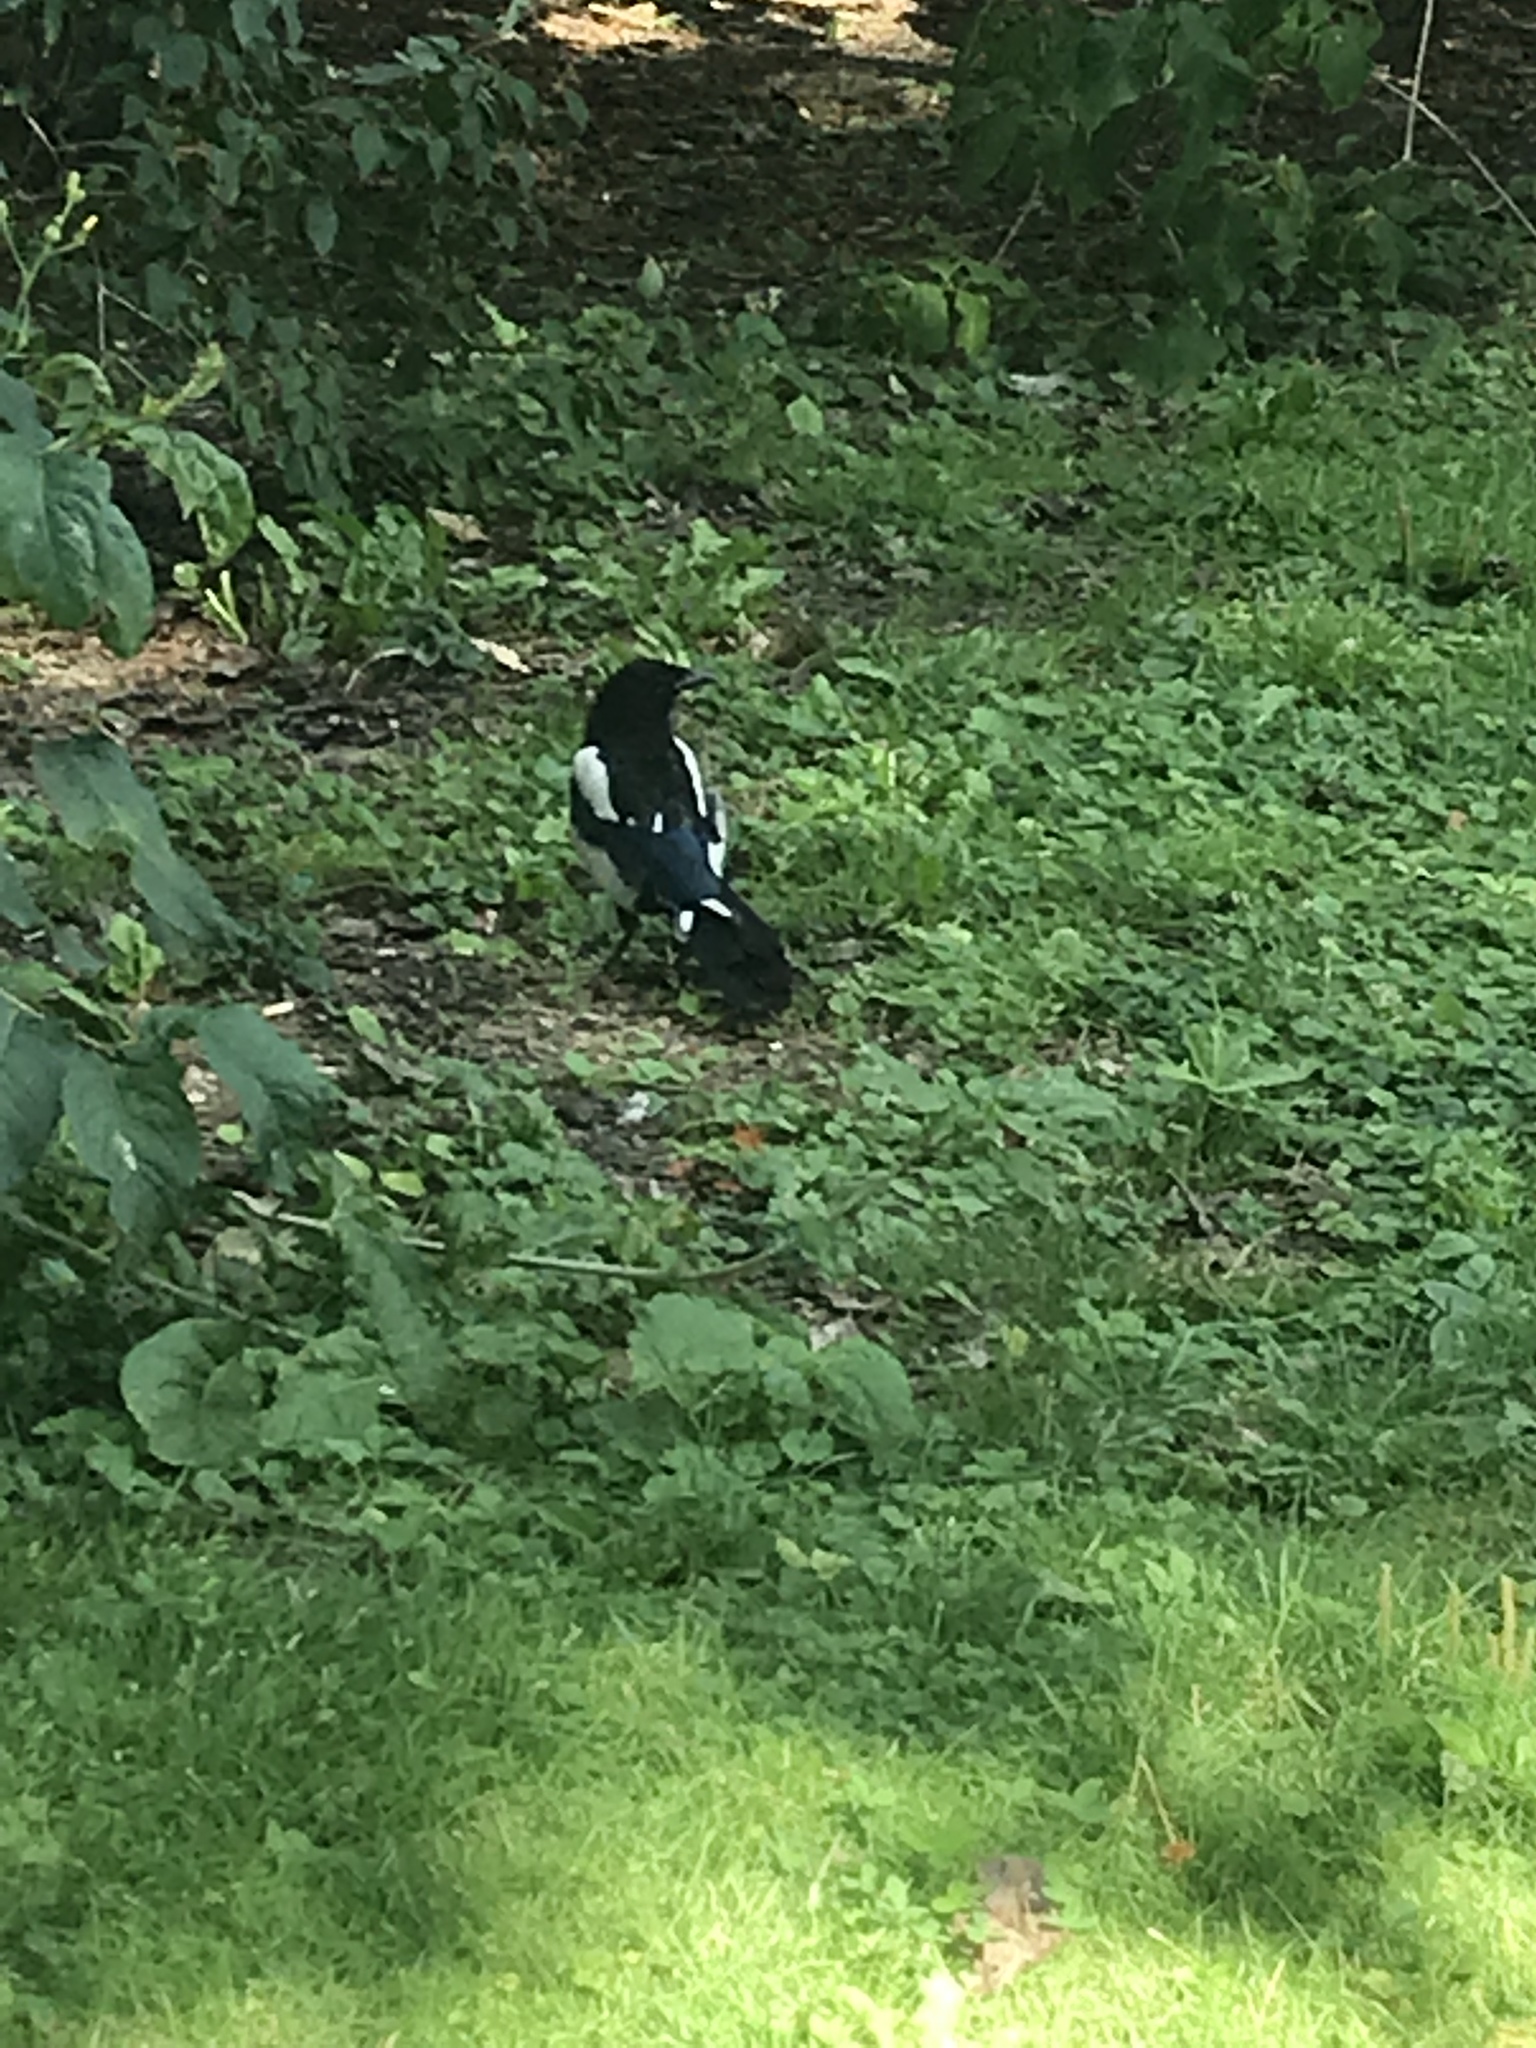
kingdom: Animalia
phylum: Chordata
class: Aves
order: Passeriformes
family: Corvidae
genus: Pica
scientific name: Pica pica
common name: Eurasian magpie
